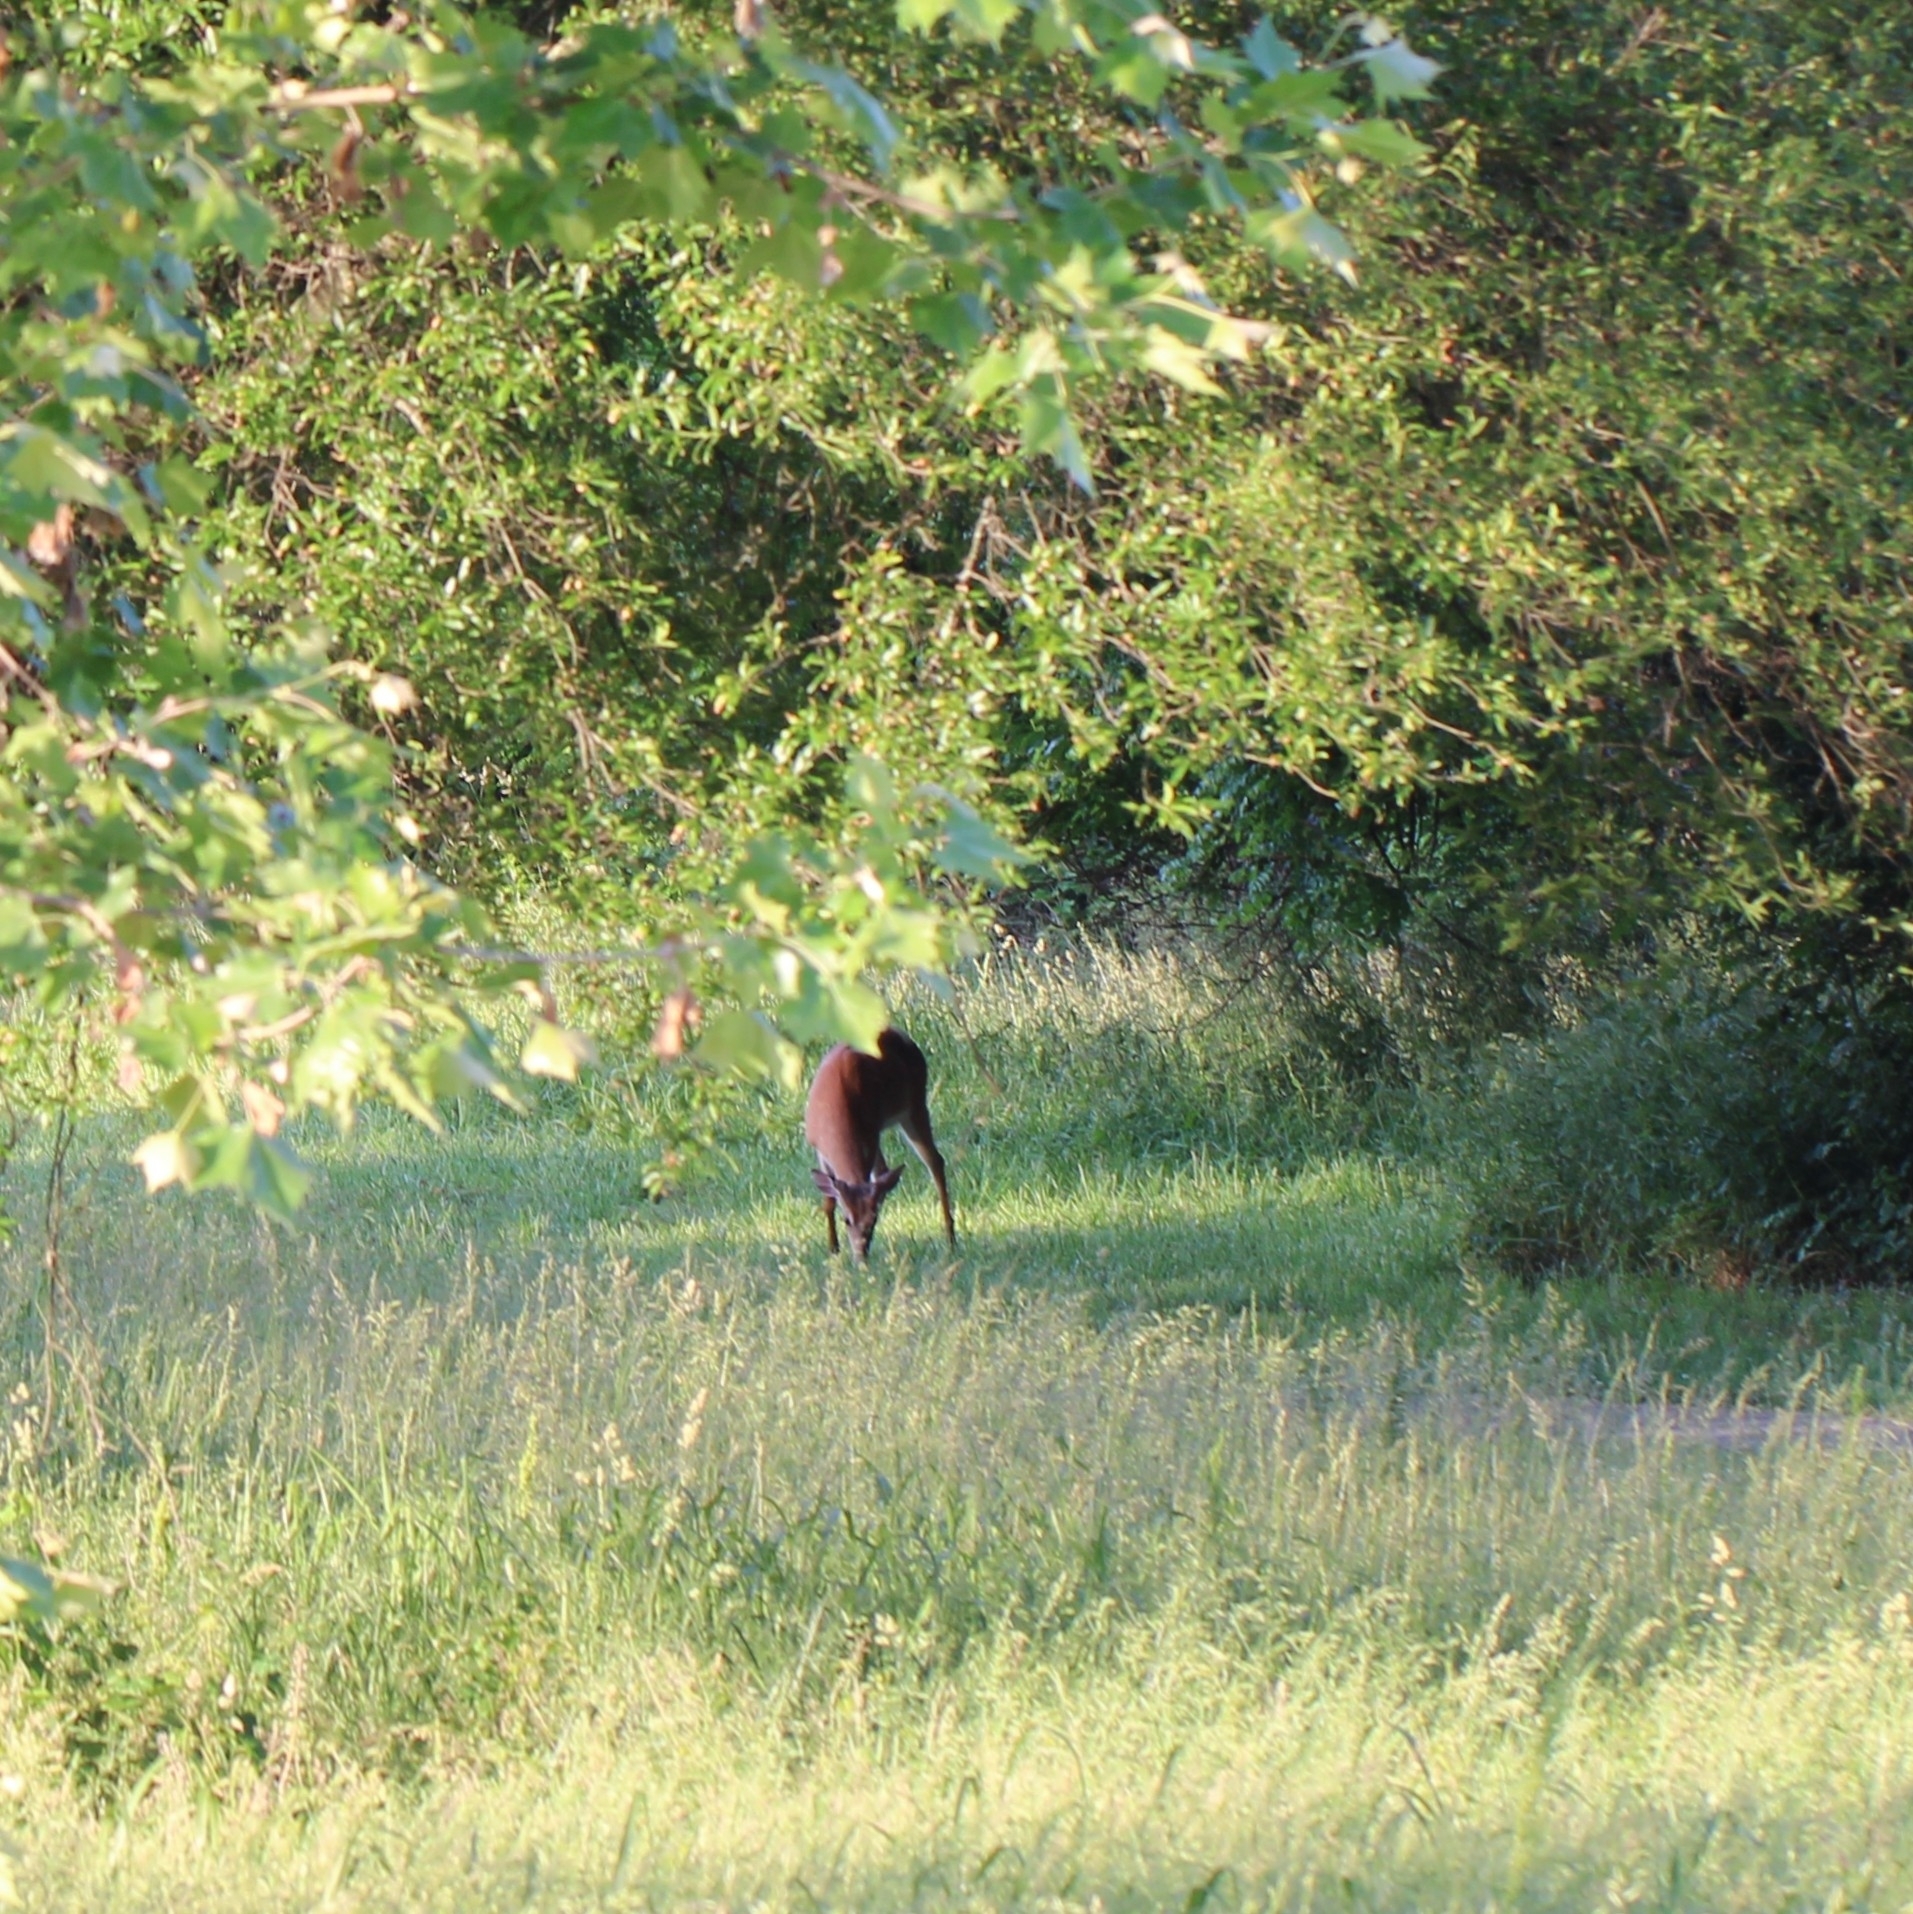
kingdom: Animalia
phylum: Chordata
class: Mammalia
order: Artiodactyla
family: Cervidae
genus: Odocoileus
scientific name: Odocoileus virginianus
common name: White-tailed deer
